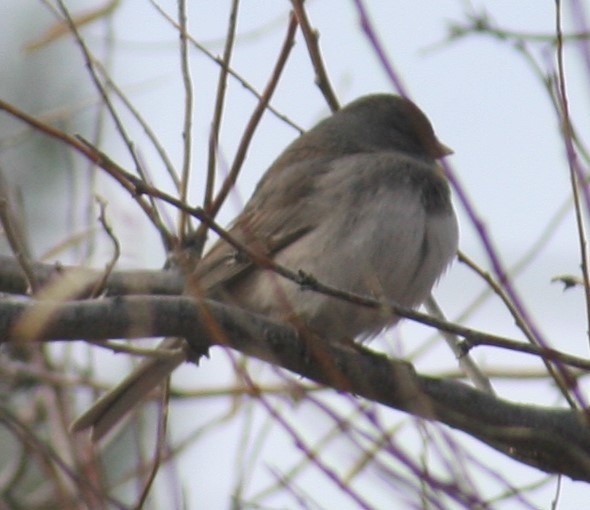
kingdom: Animalia
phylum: Chordata
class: Aves
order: Passeriformes
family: Passerellidae
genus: Junco
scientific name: Junco hyemalis
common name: Dark-eyed junco
